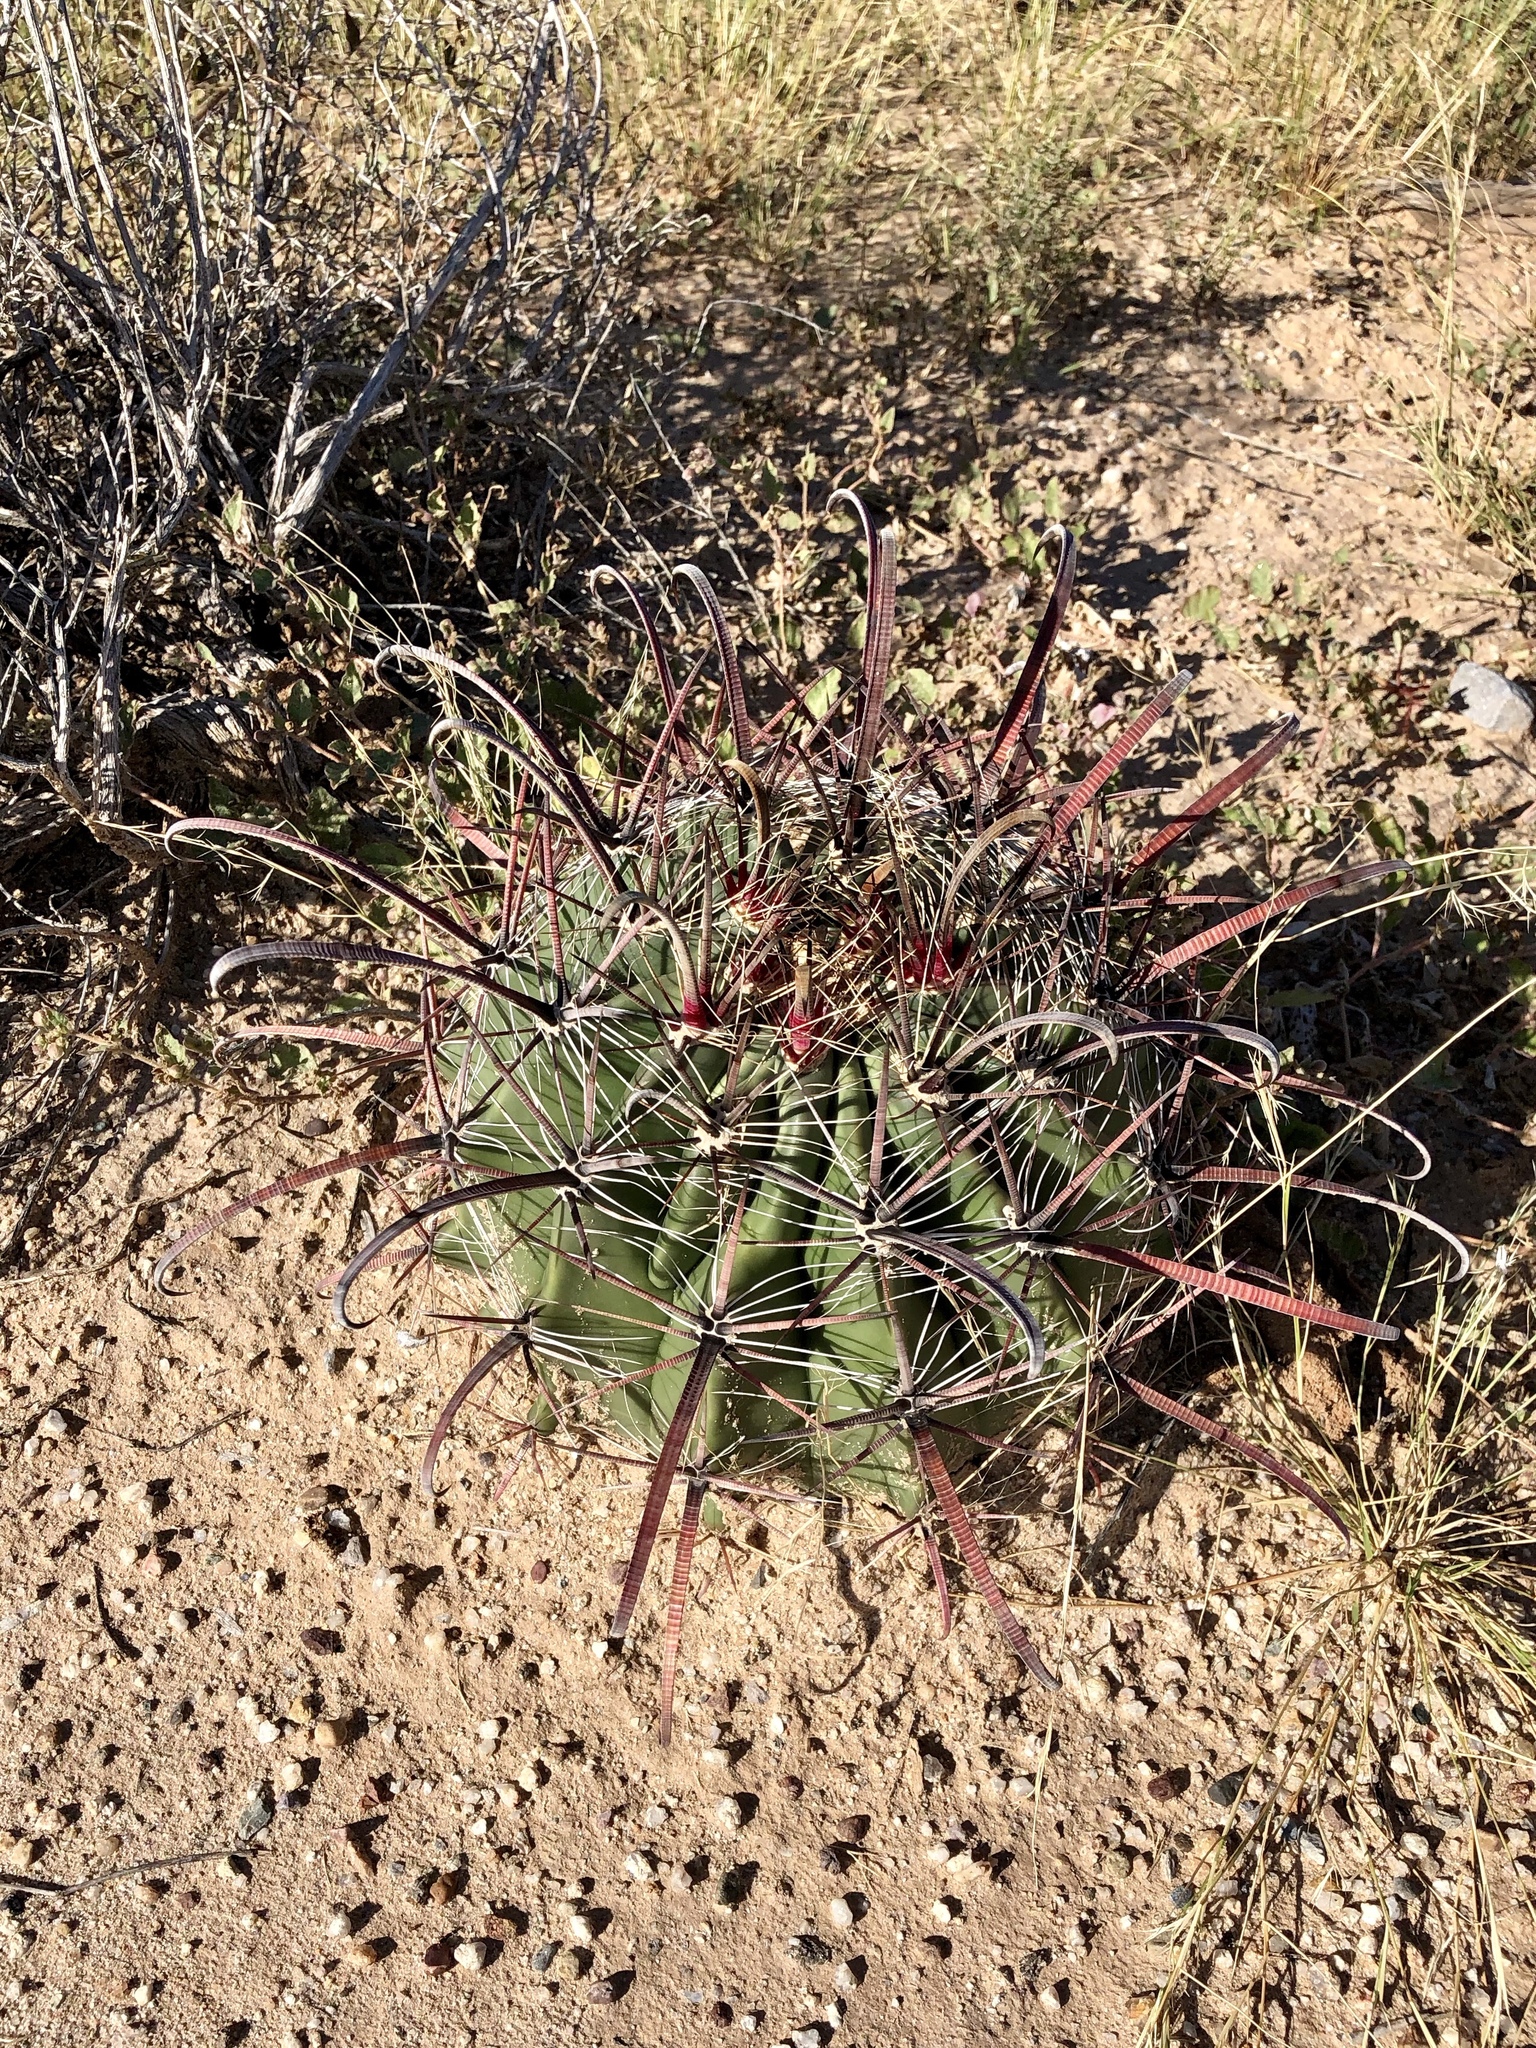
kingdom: Plantae
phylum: Tracheophyta
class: Magnoliopsida
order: Caryophyllales
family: Cactaceae
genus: Ferocactus
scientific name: Ferocactus wislizeni
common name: Candy barrel cactus
